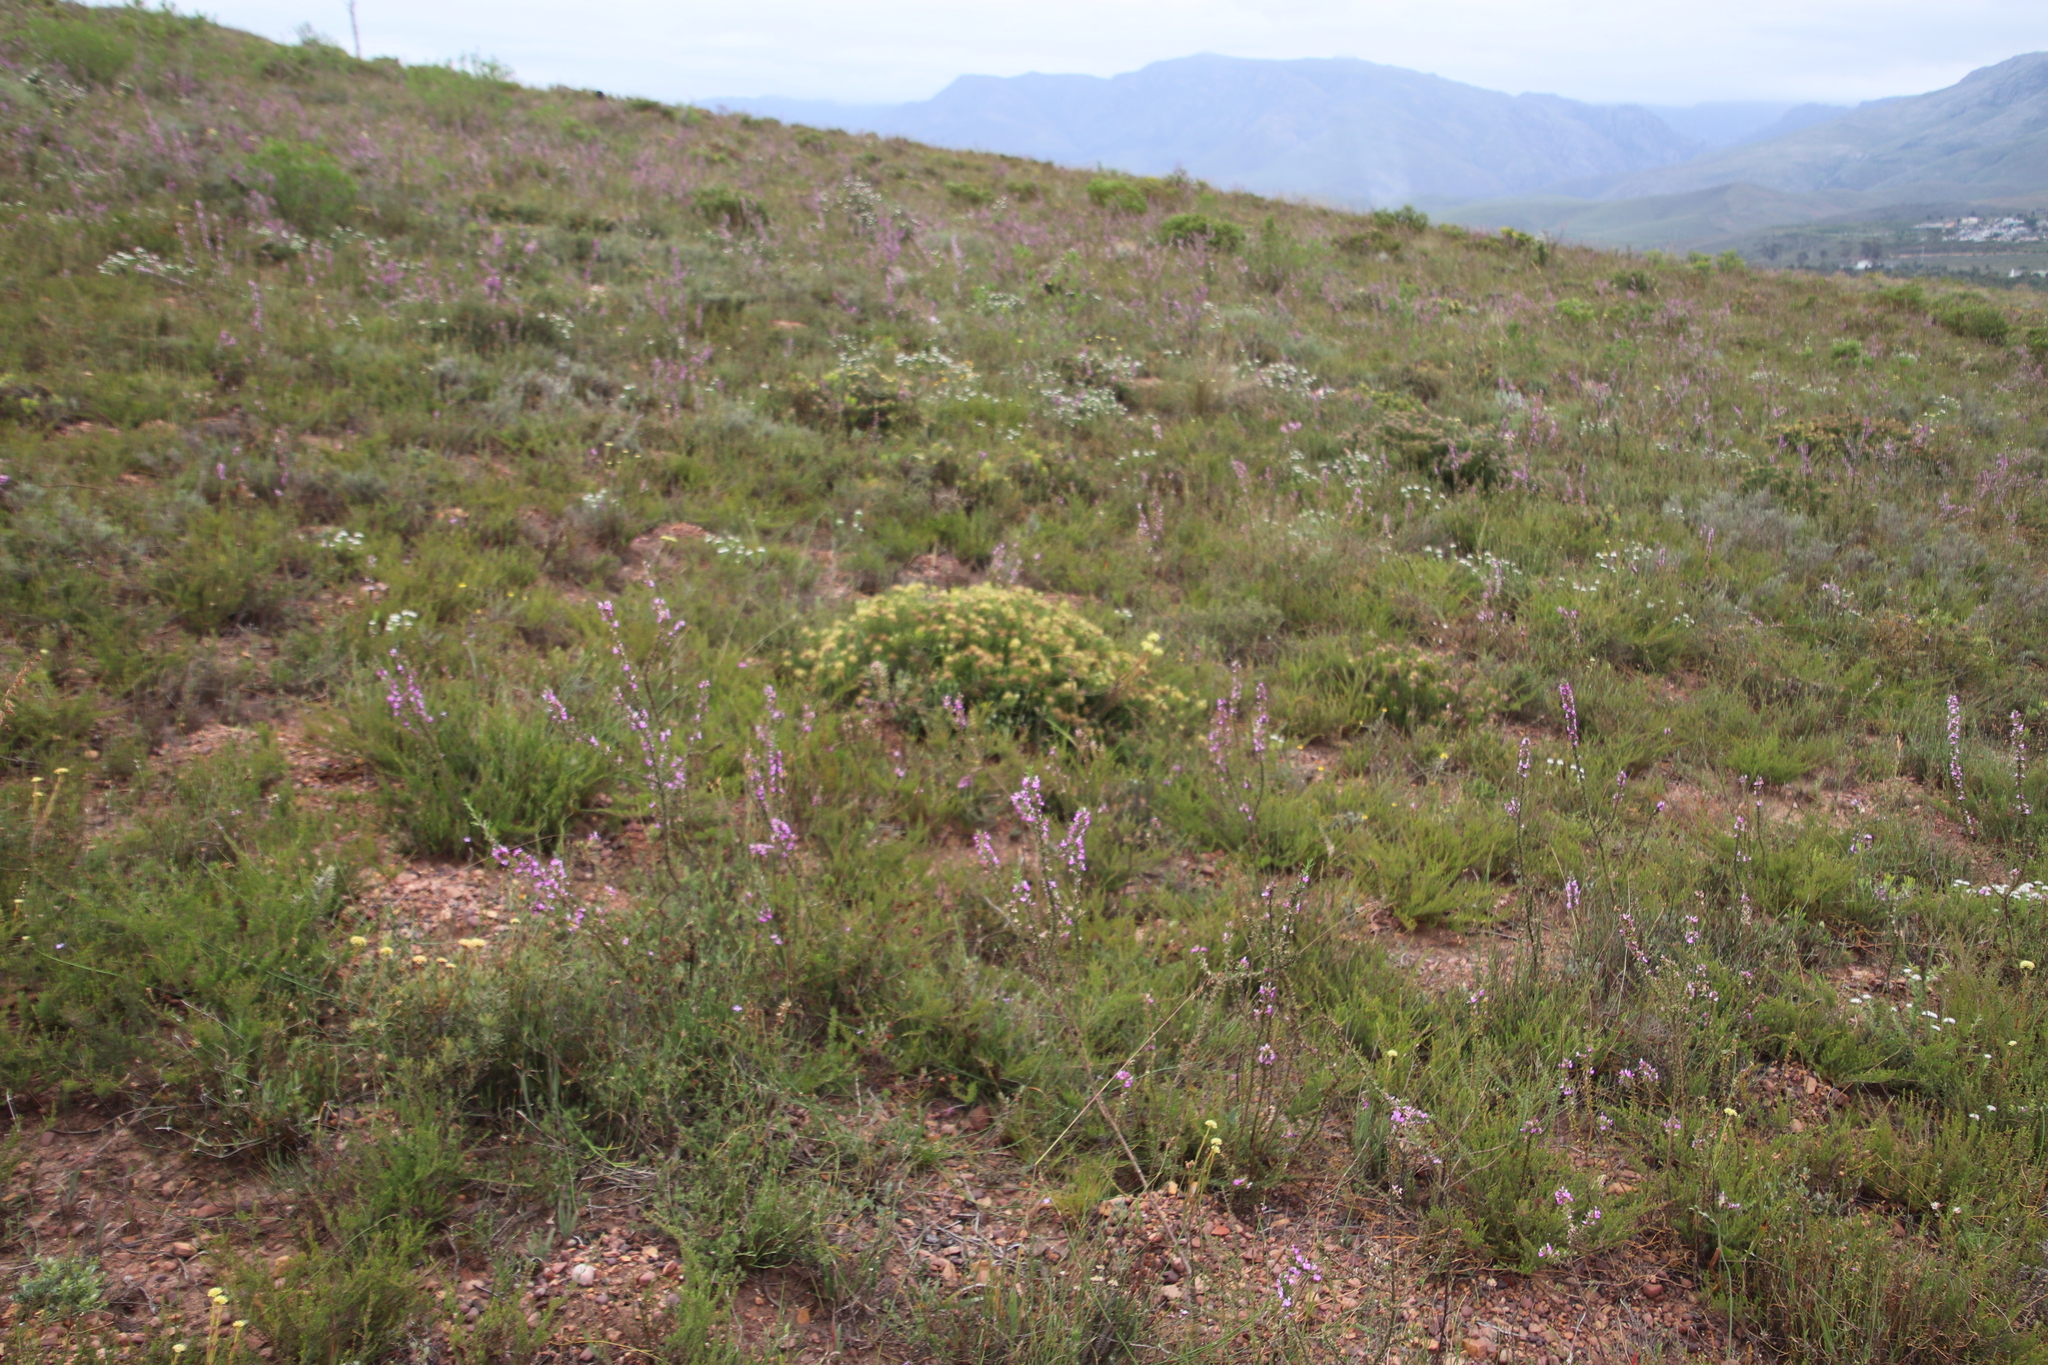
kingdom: Plantae
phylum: Tracheophyta
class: Magnoliopsida
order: Proteales
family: Proteaceae
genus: Serruria
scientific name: Serruria
